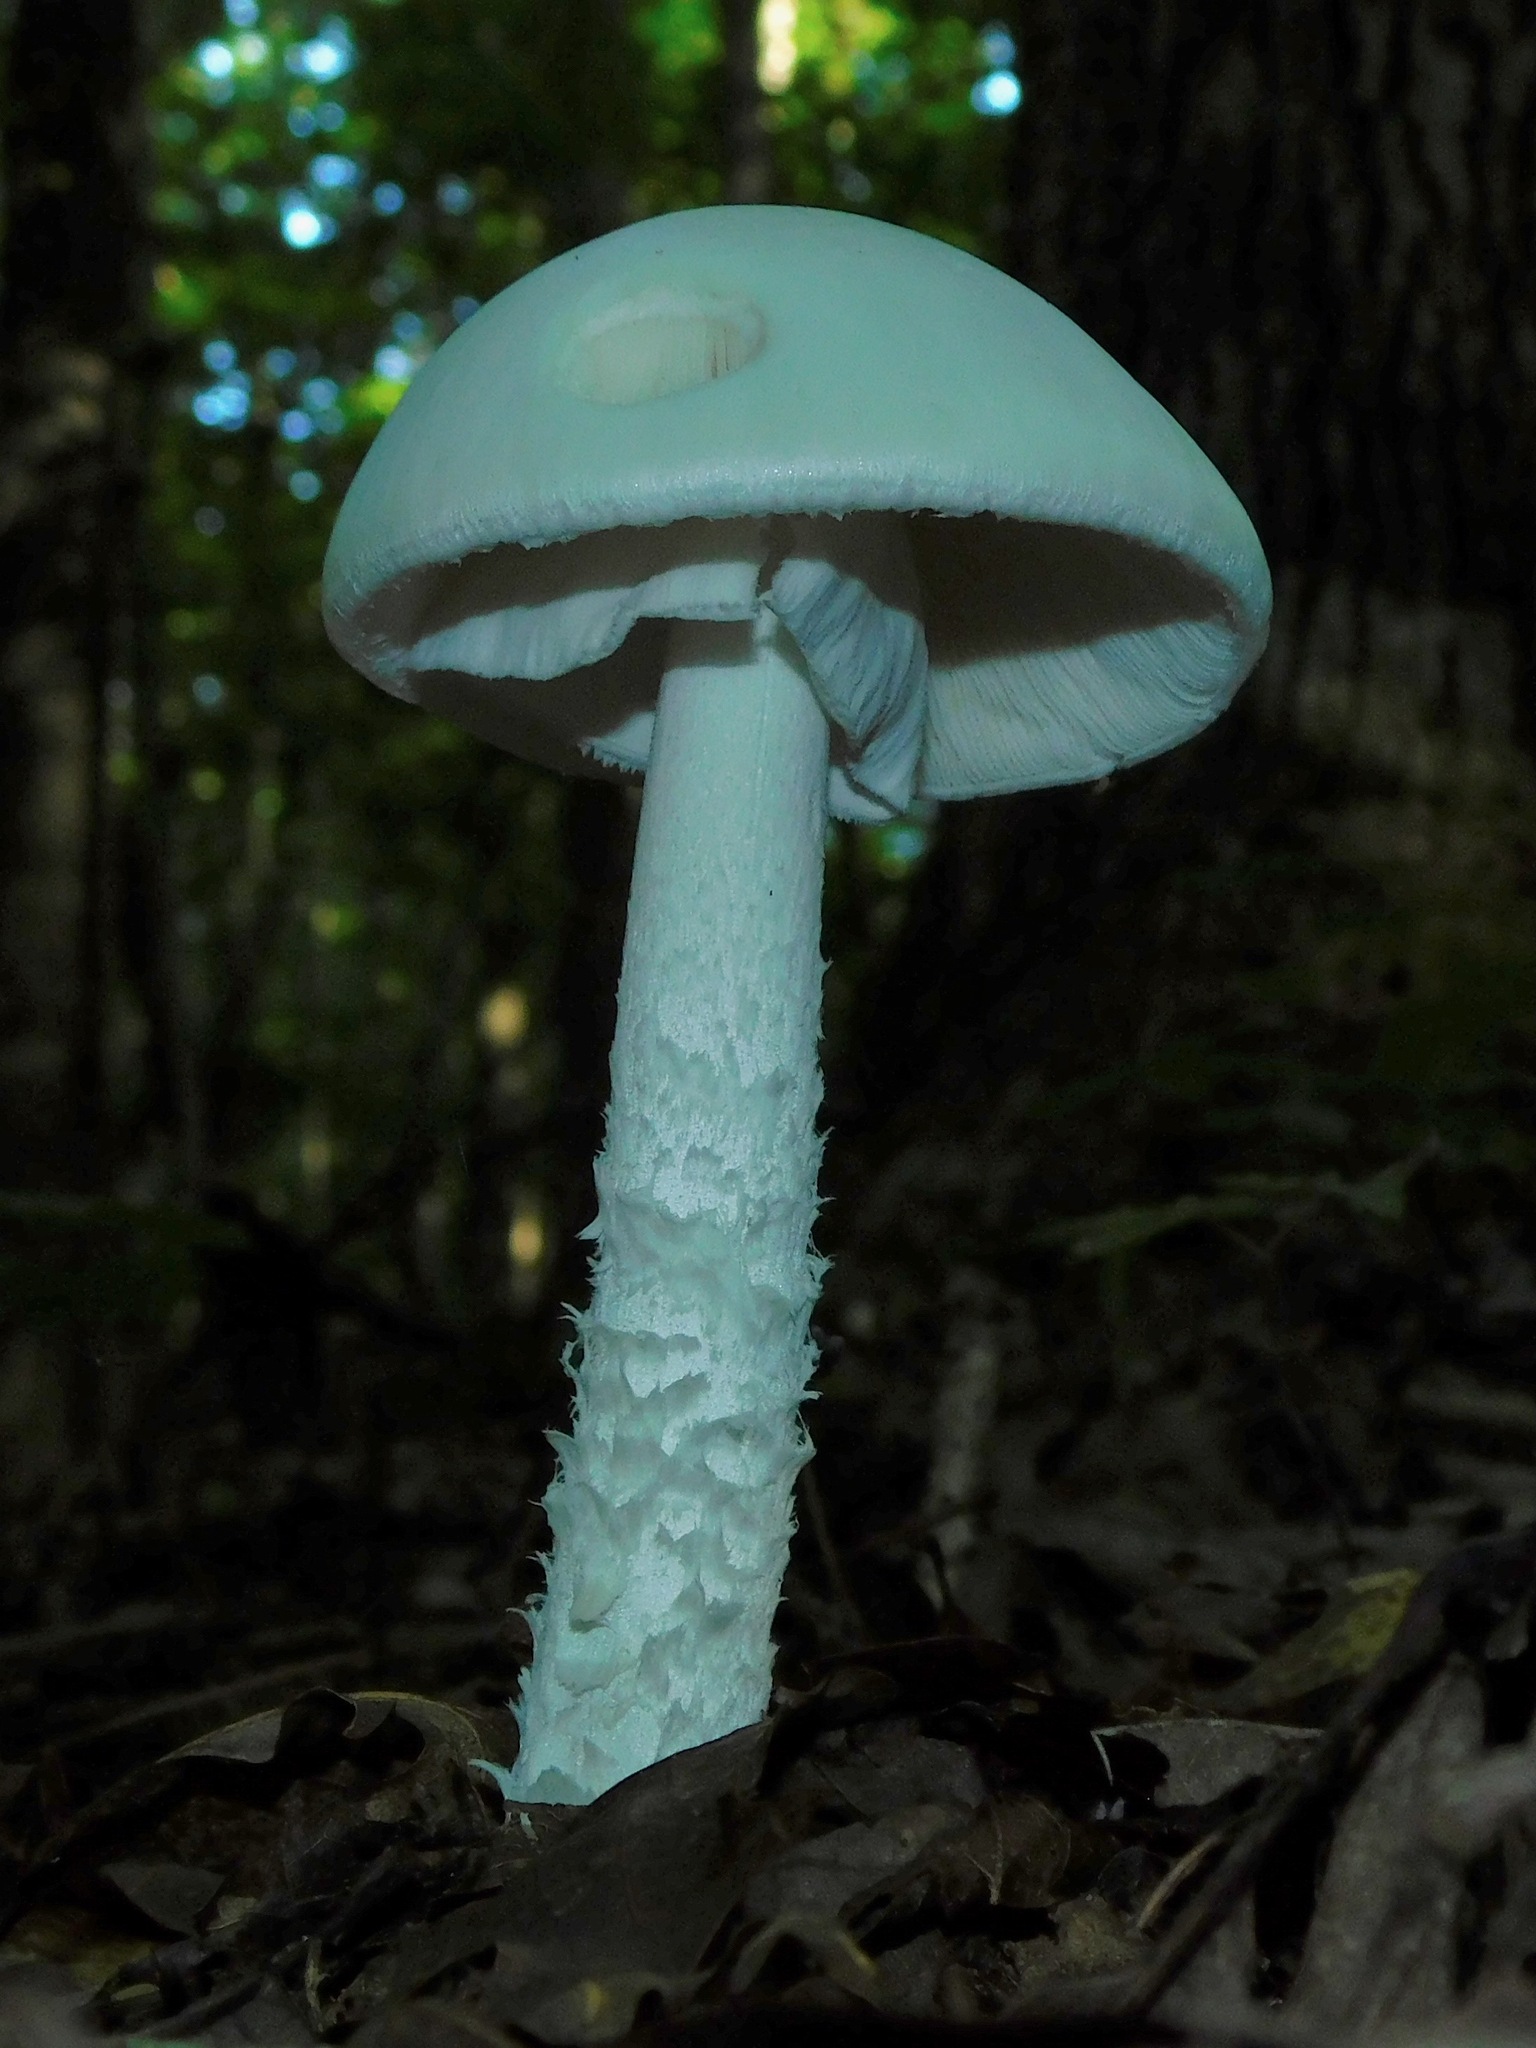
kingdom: Fungi
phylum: Basidiomycota
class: Agaricomycetes
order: Agaricales
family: Amanitaceae
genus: Amanita
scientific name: Amanita lavendula
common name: Coker's lavender staining amanita
